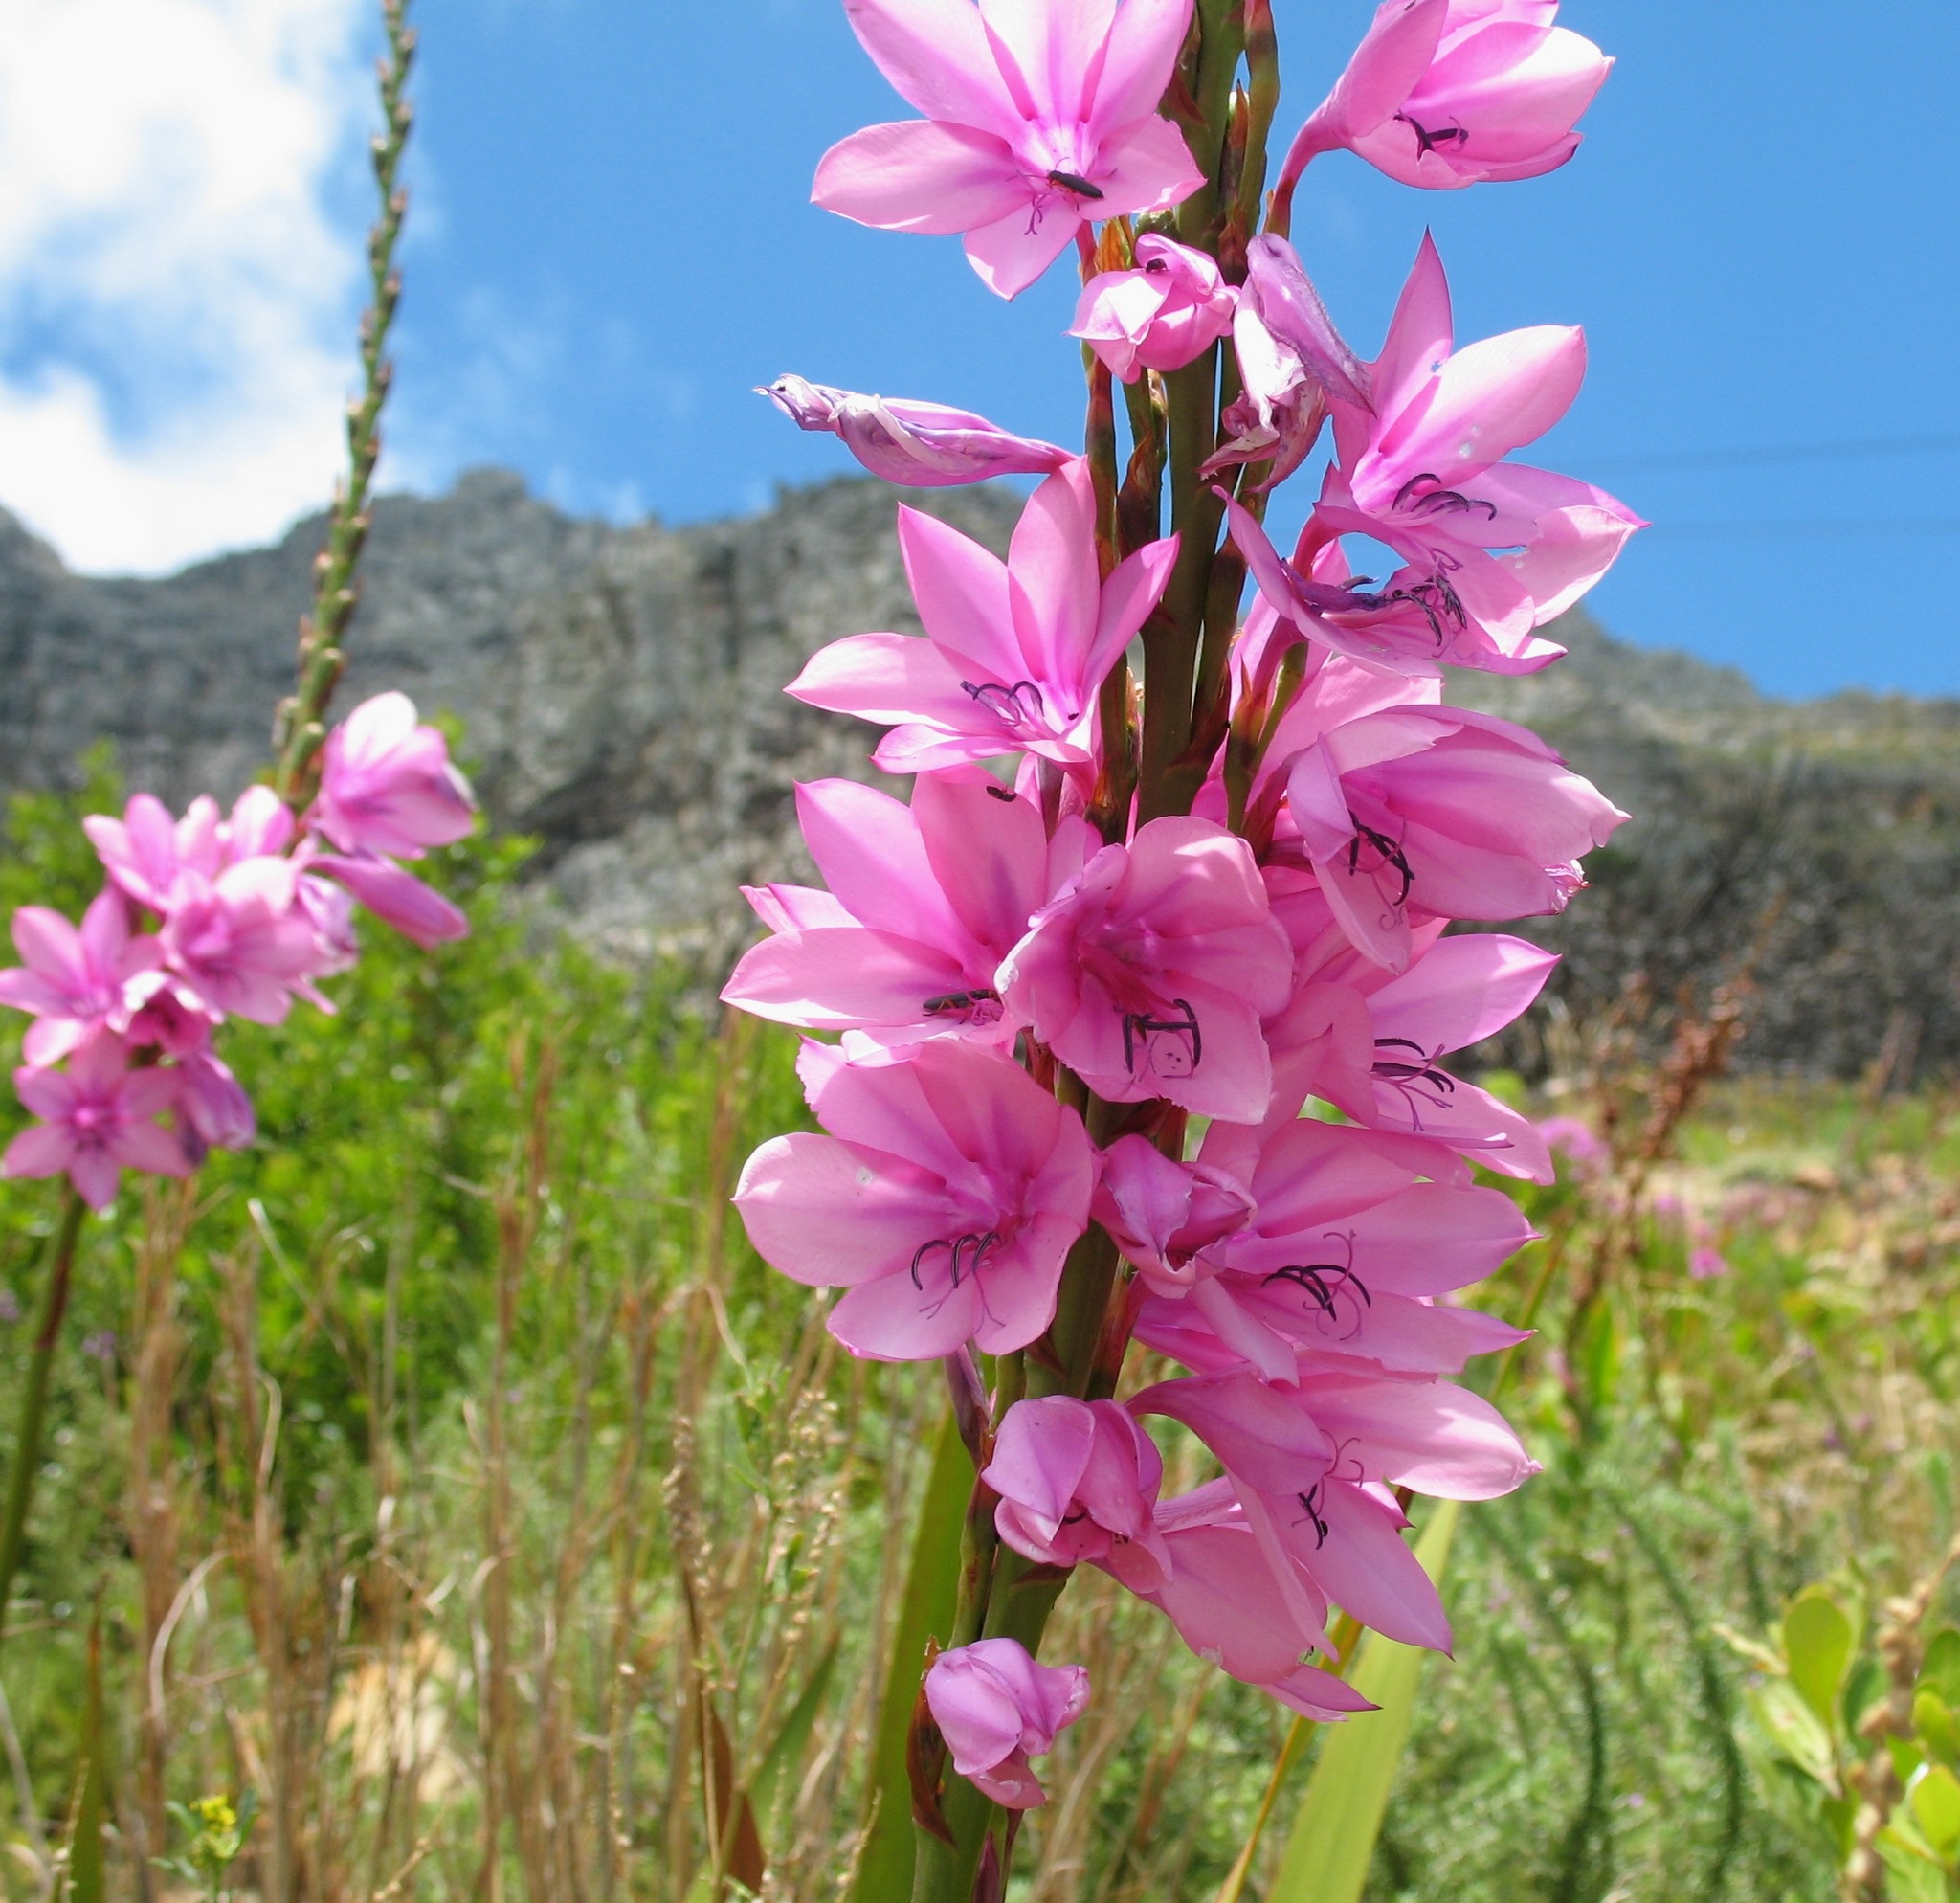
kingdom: Plantae
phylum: Tracheophyta
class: Liliopsida
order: Asparagales
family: Iridaceae
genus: Watsonia
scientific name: Watsonia borbonica
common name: Bugle-lily
